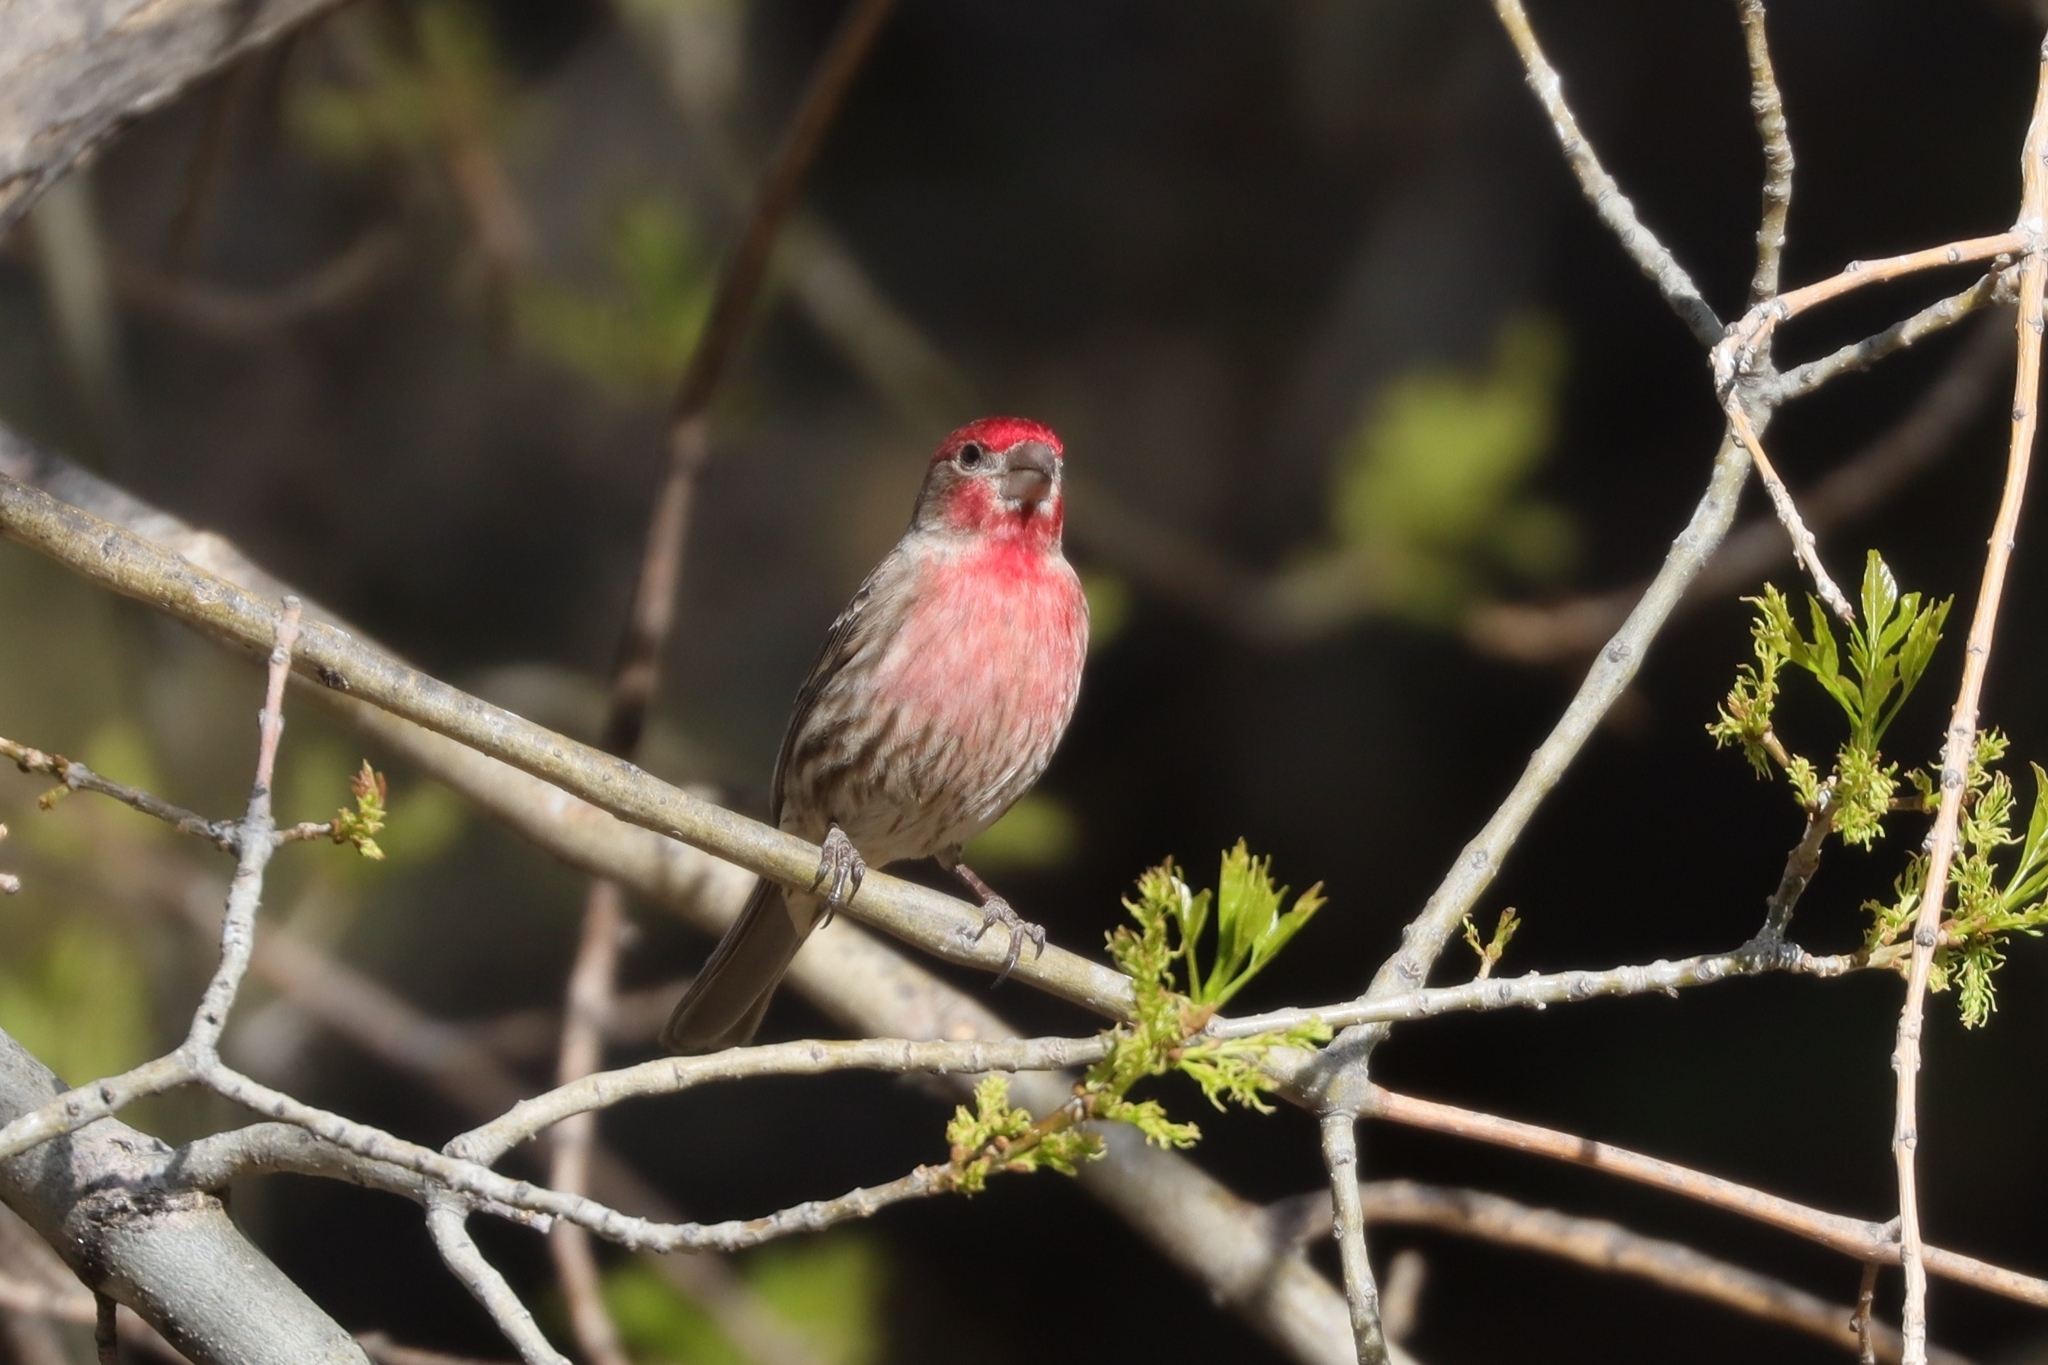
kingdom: Animalia
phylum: Chordata
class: Aves
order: Passeriformes
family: Fringillidae
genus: Haemorhous
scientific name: Haemorhous mexicanus
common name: House finch
